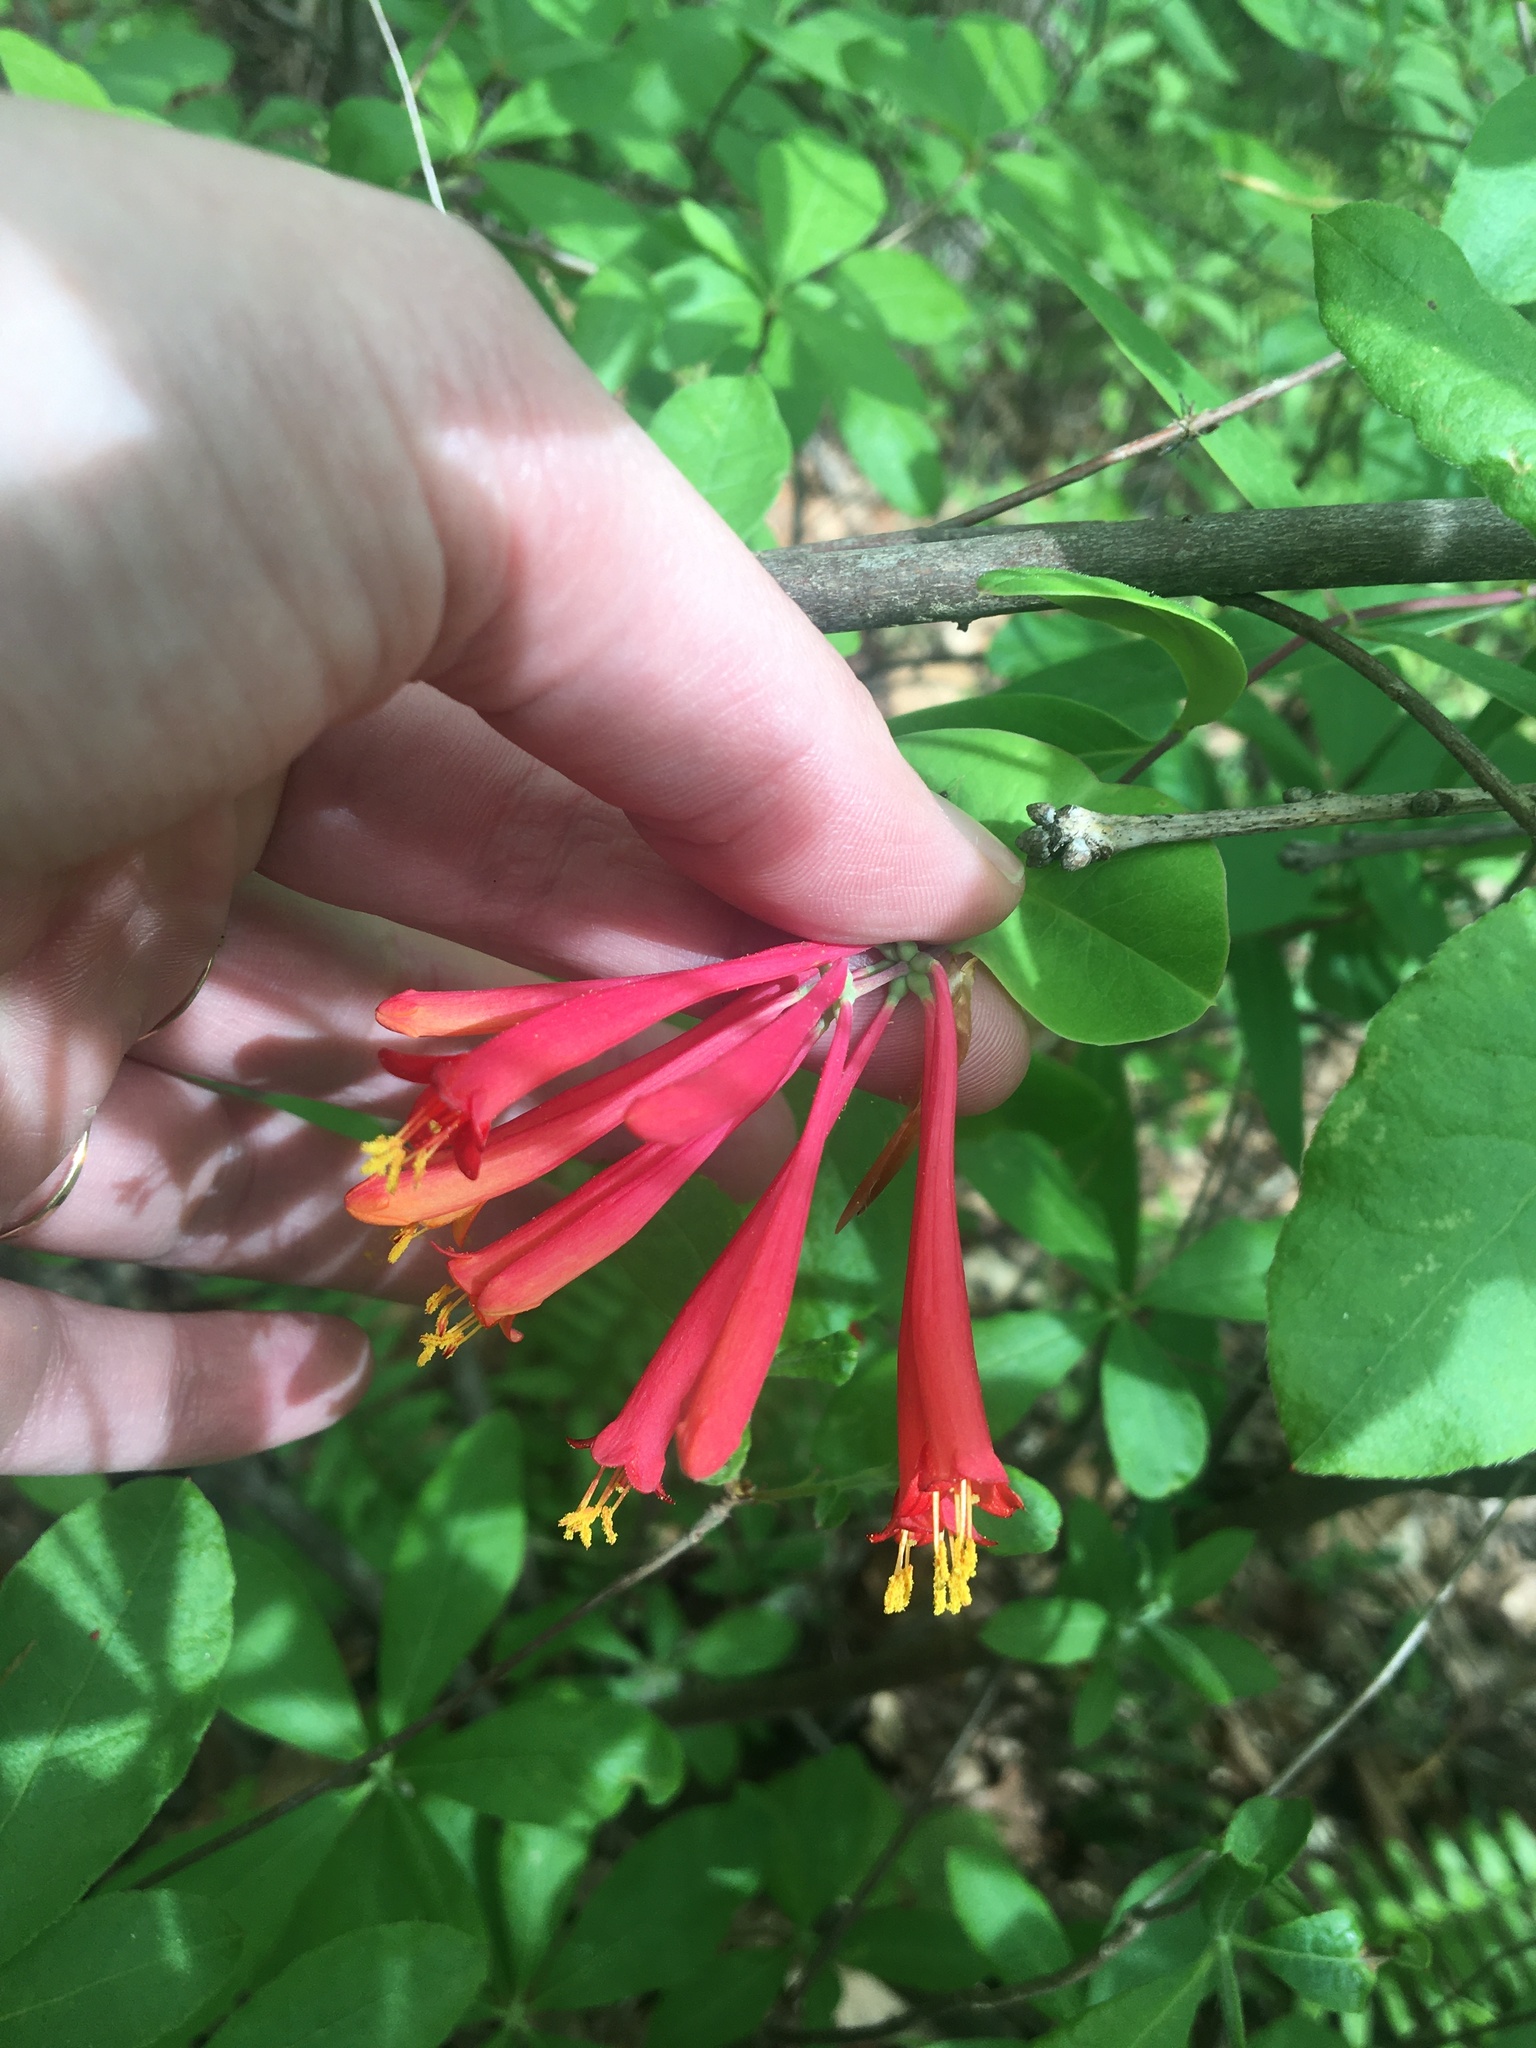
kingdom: Plantae
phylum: Tracheophyta
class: Magnoliopsida
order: Dipsacales
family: Caprifoliaceae
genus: Lonicera
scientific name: Lonicera sempervirens
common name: Coral honeysuckle
